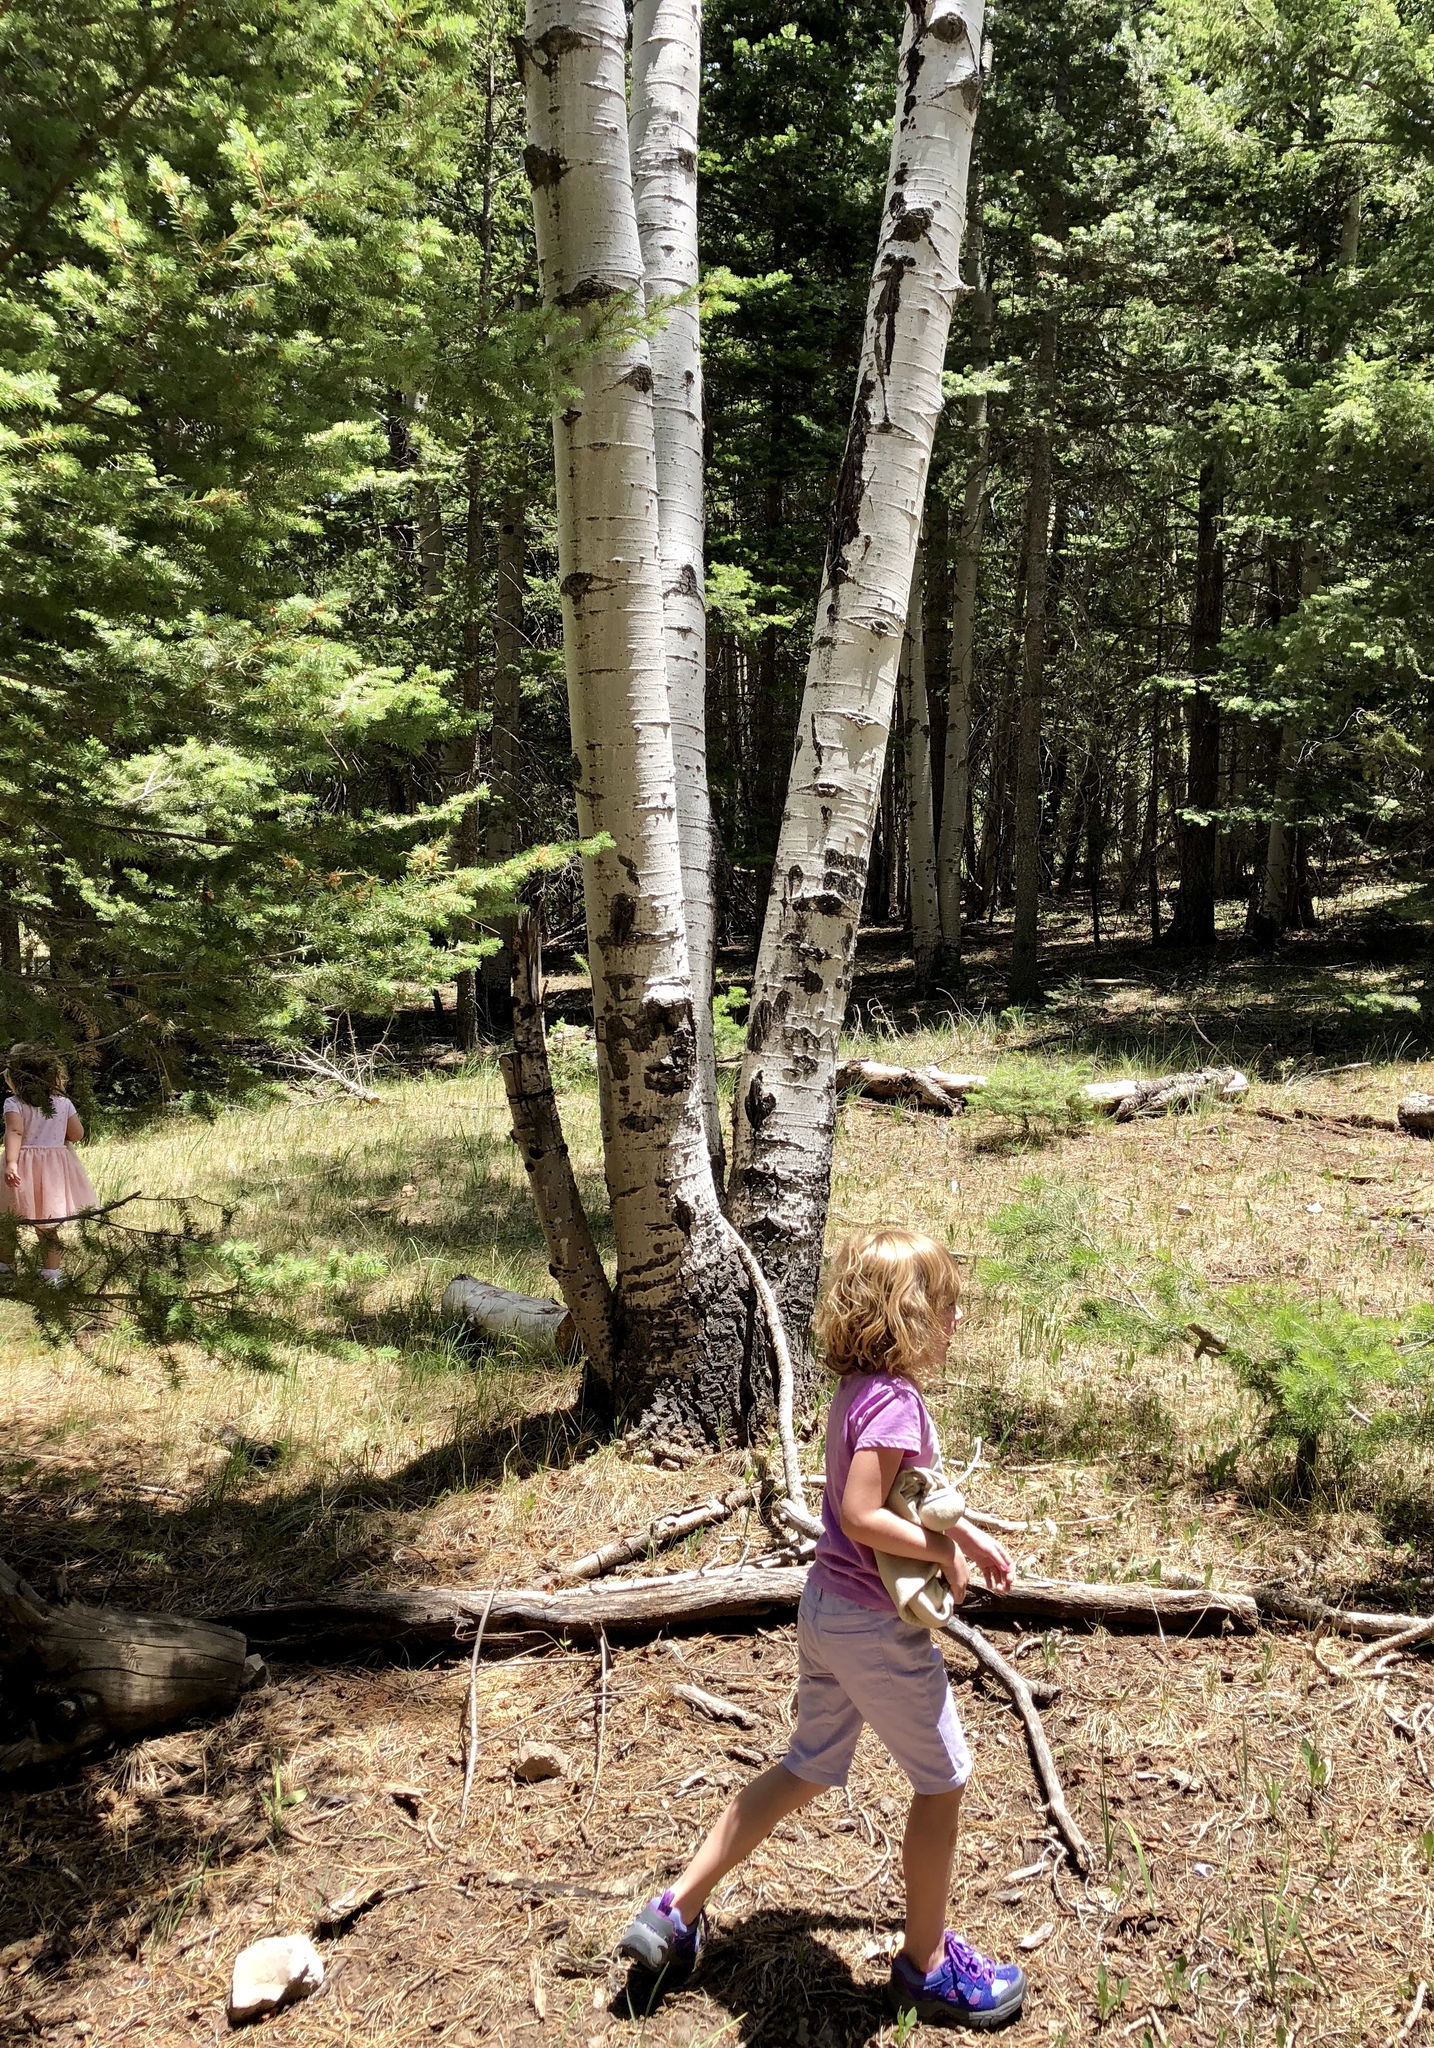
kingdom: Plantae
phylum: Tracheophyta
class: Magnoliopsida
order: Malpighiales
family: Salicaceae
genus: Populus
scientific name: Populus tremuloides
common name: Quaking aspen
